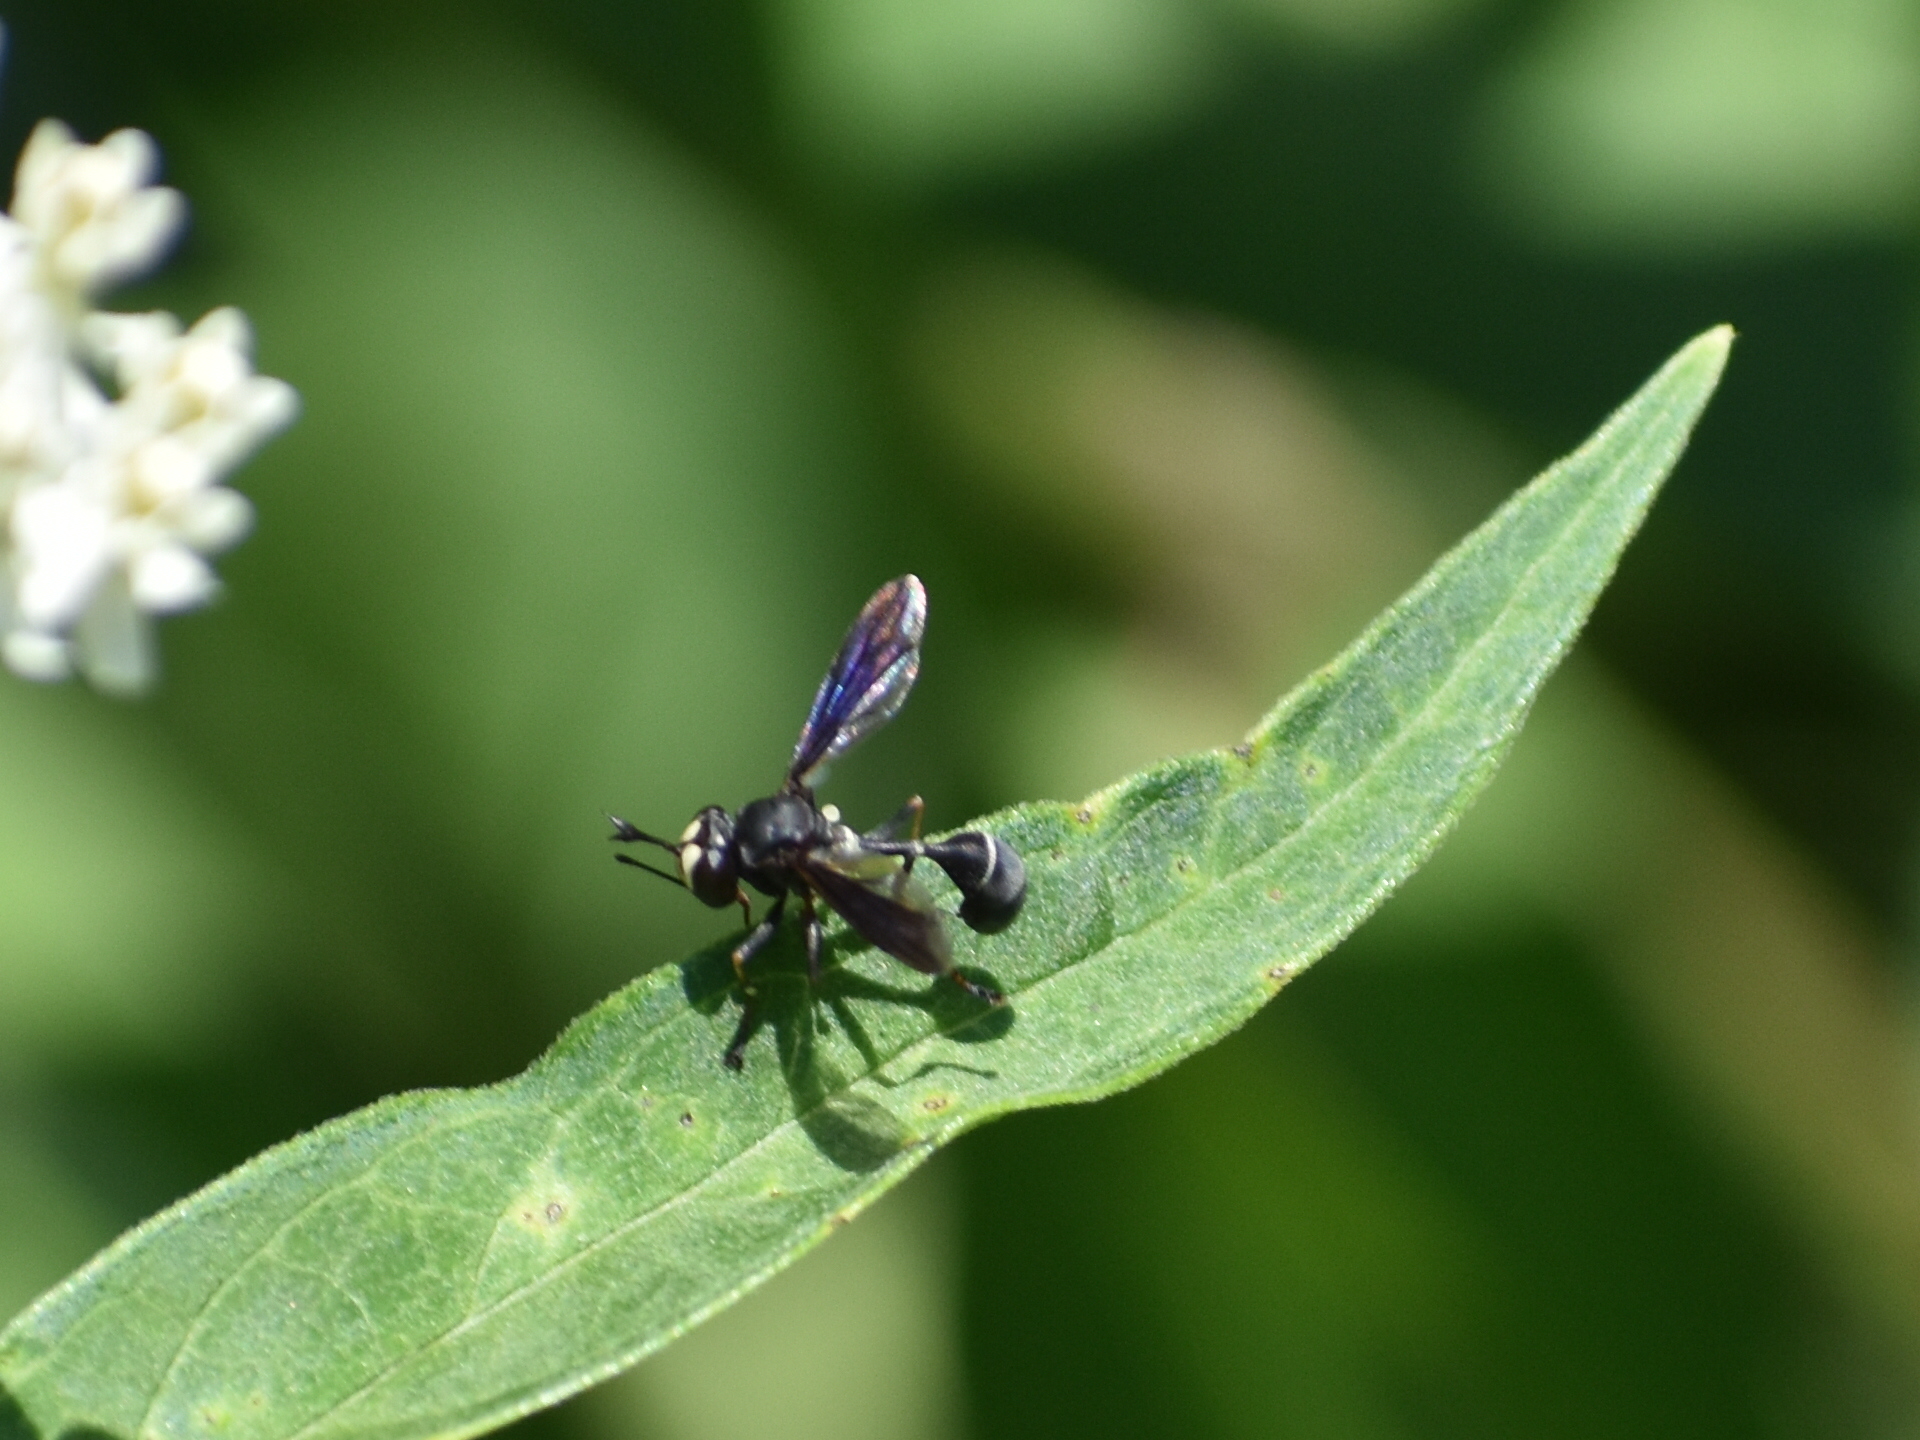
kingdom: Animalia
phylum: Arthropoda
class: Insecta
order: Diptera
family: Conopidae
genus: Physocephala
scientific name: Physocephala tibialis
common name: Common eastern physocephala
